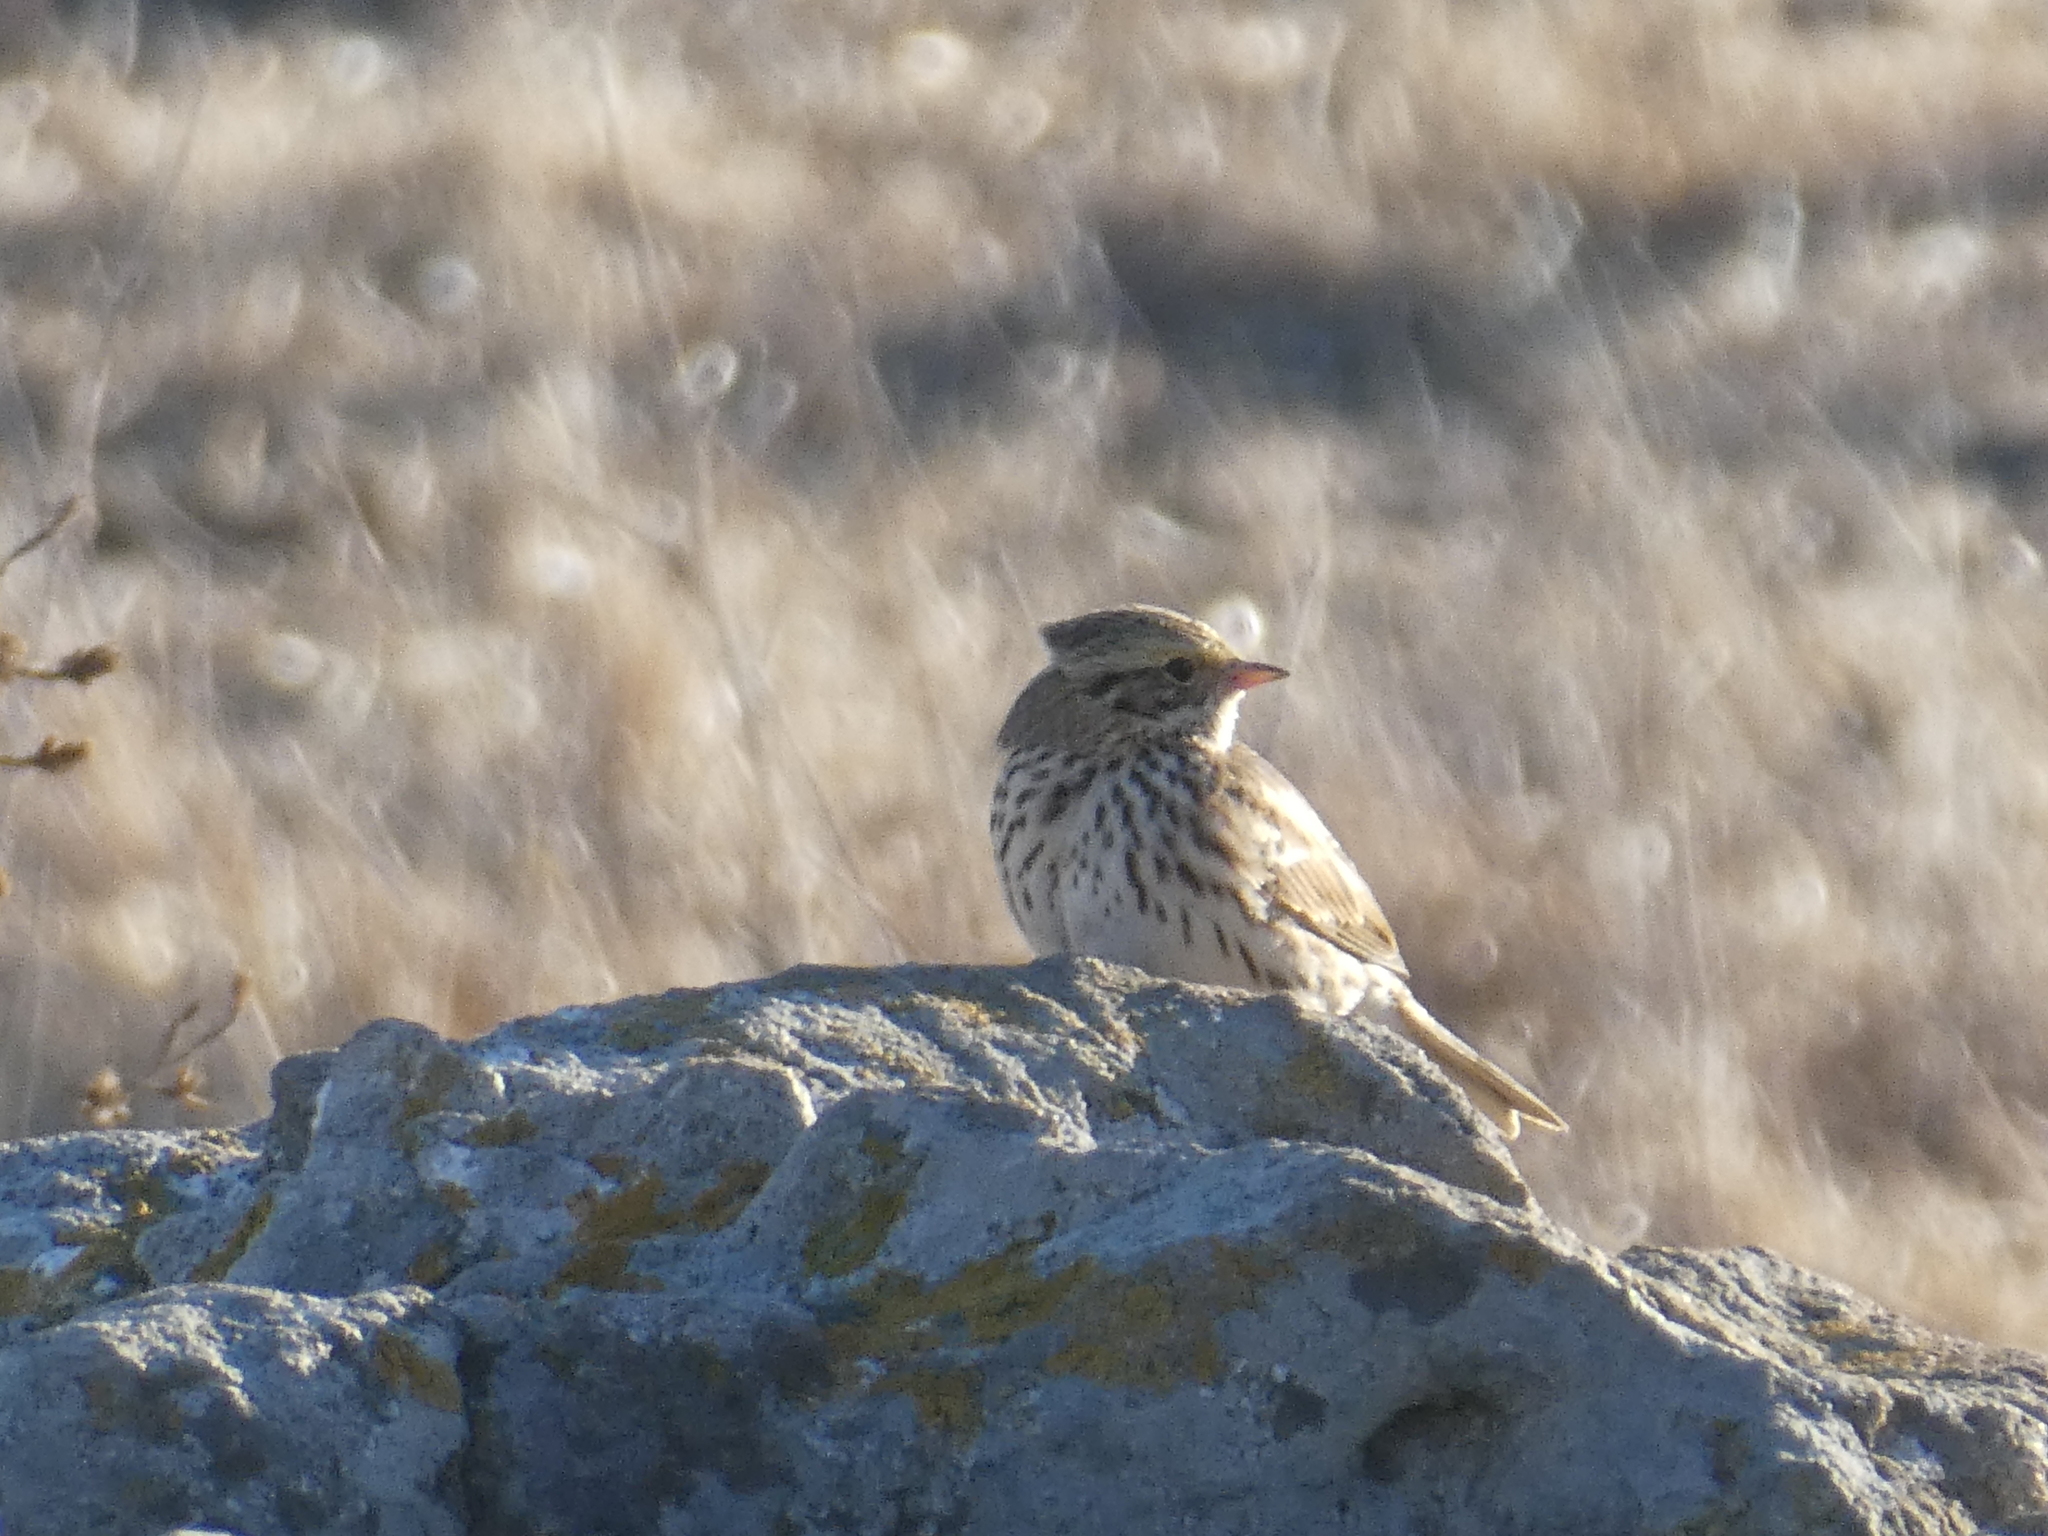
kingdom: Animalia
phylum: Chordata
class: Aves
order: Passeriformes
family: Passerellidae
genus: Passerculus
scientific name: Passerculus sandwichensis
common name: Savannah sparrow
